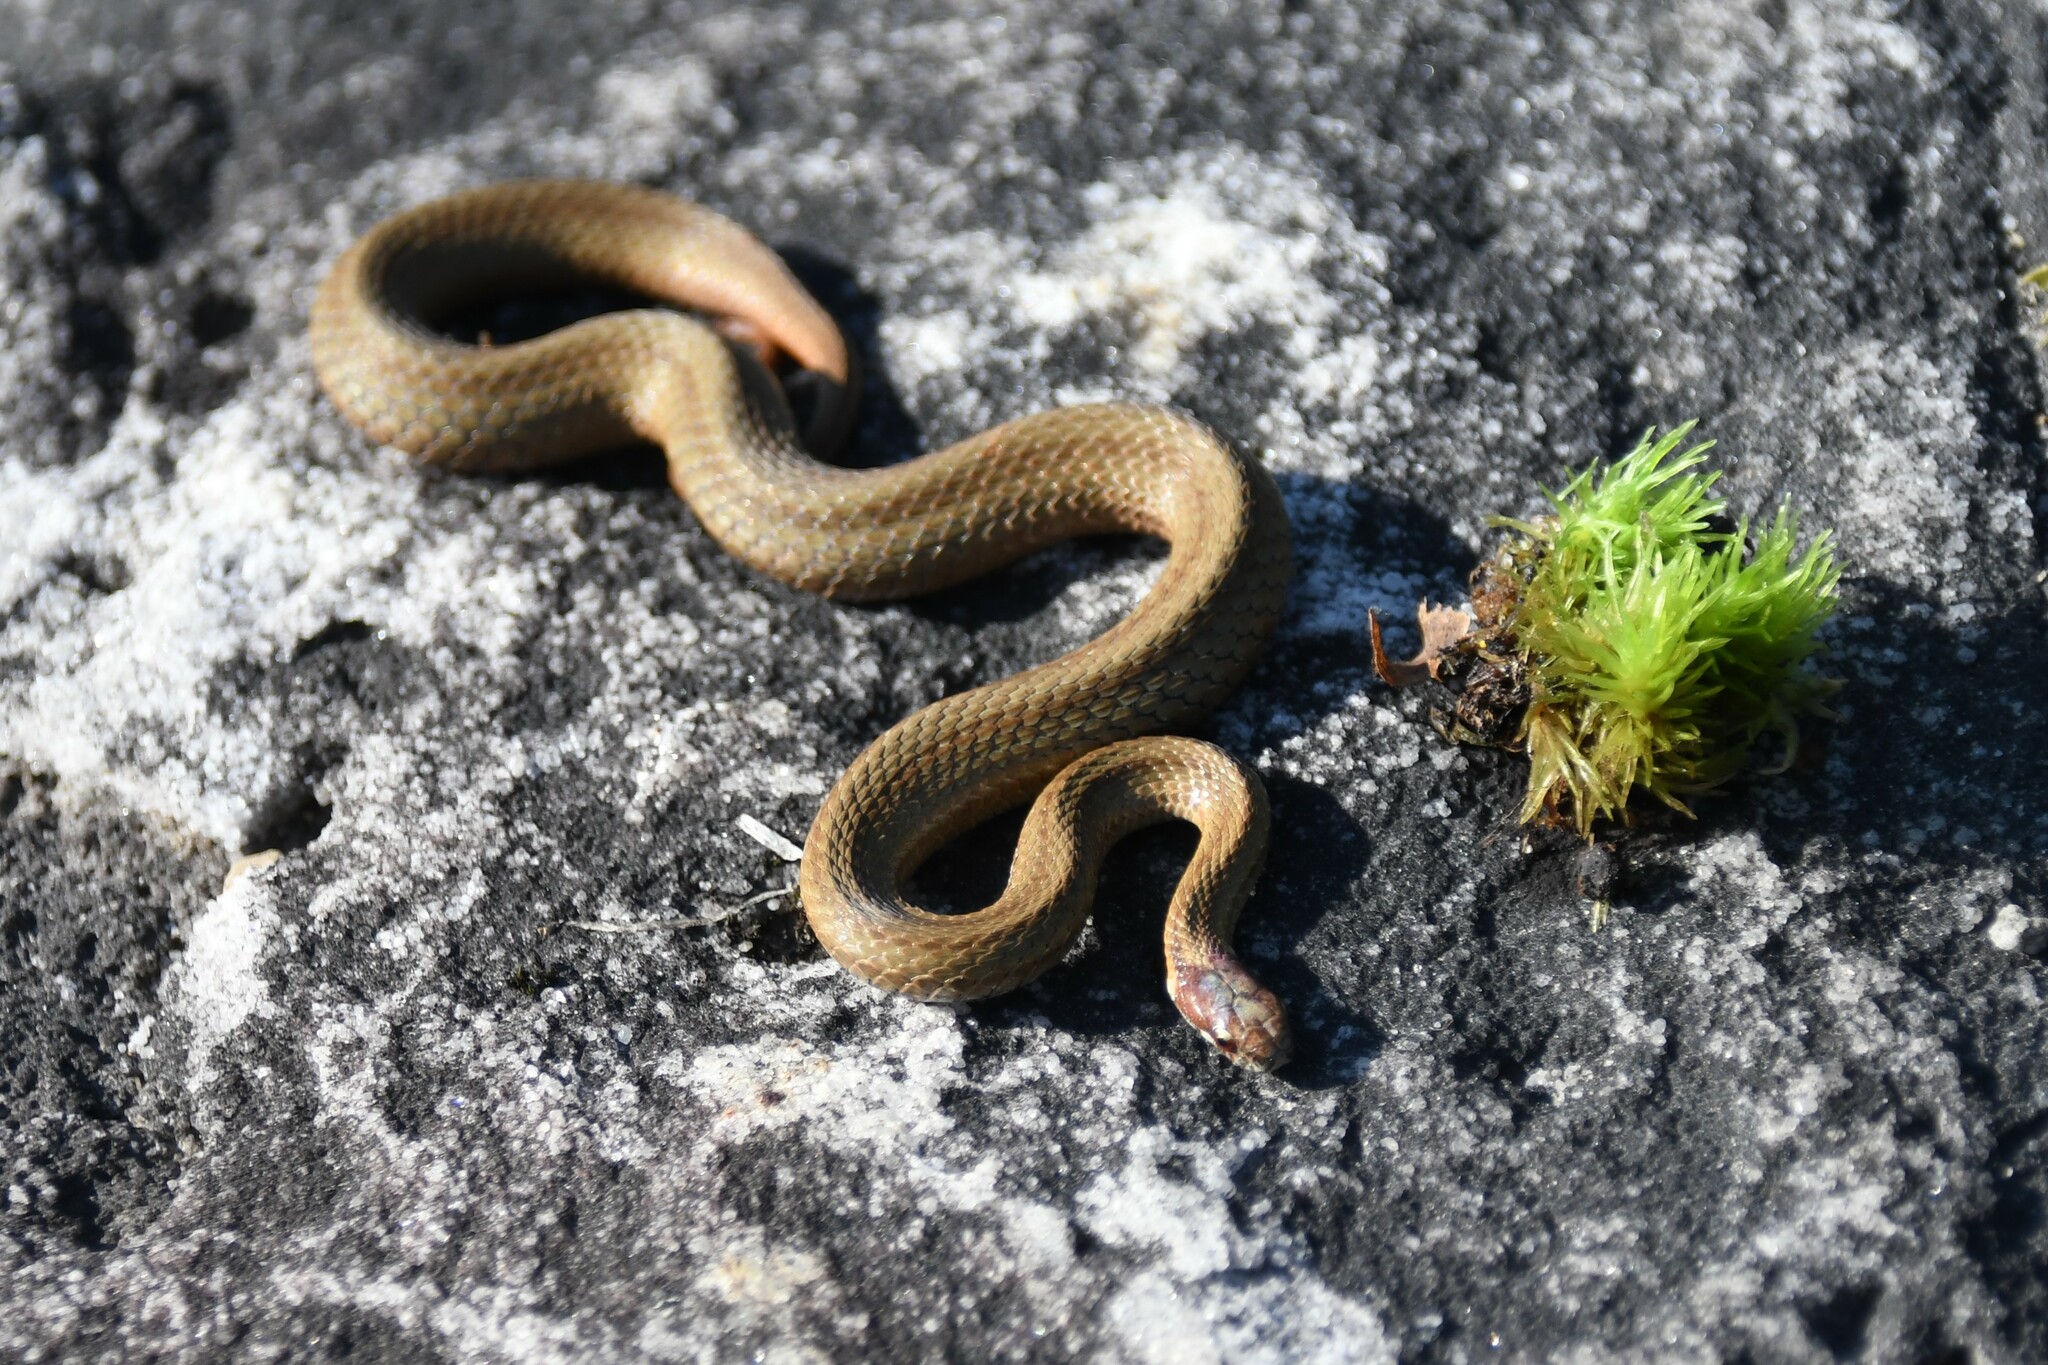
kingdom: Animalia
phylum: Chordata
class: Squamata
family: Colubridae
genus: Storeria
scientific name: Storeria occipitomaculata
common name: Redbelly snake
